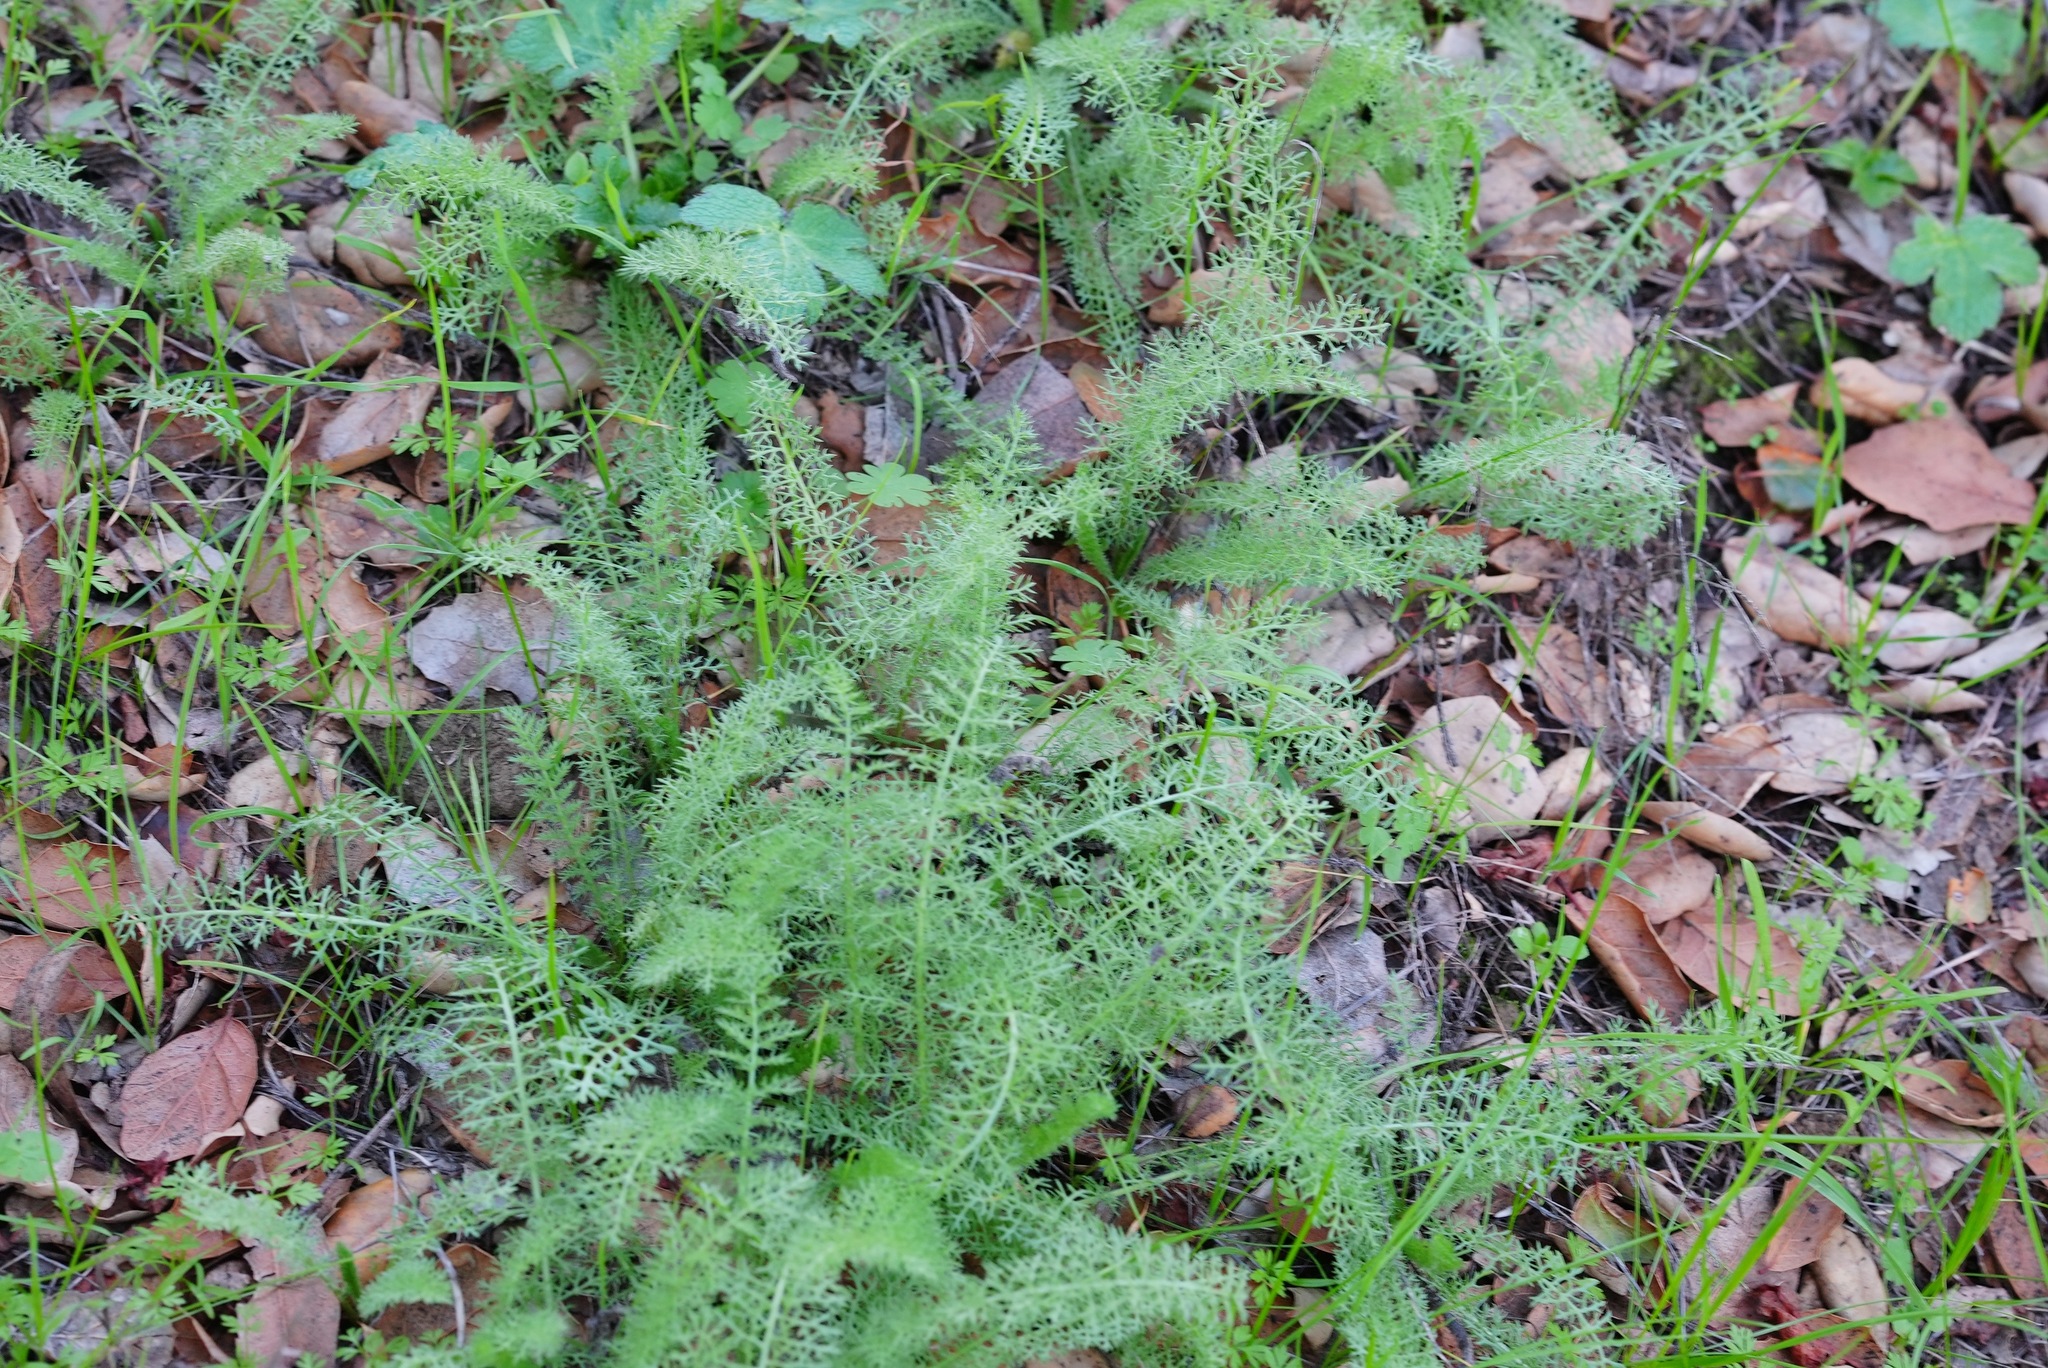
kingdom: Plantae
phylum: Tracheophyta
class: Magnoliopsida
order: Asterales
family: Asteraceae
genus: Achillea
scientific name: Achillea millefolium
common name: Yarrow
